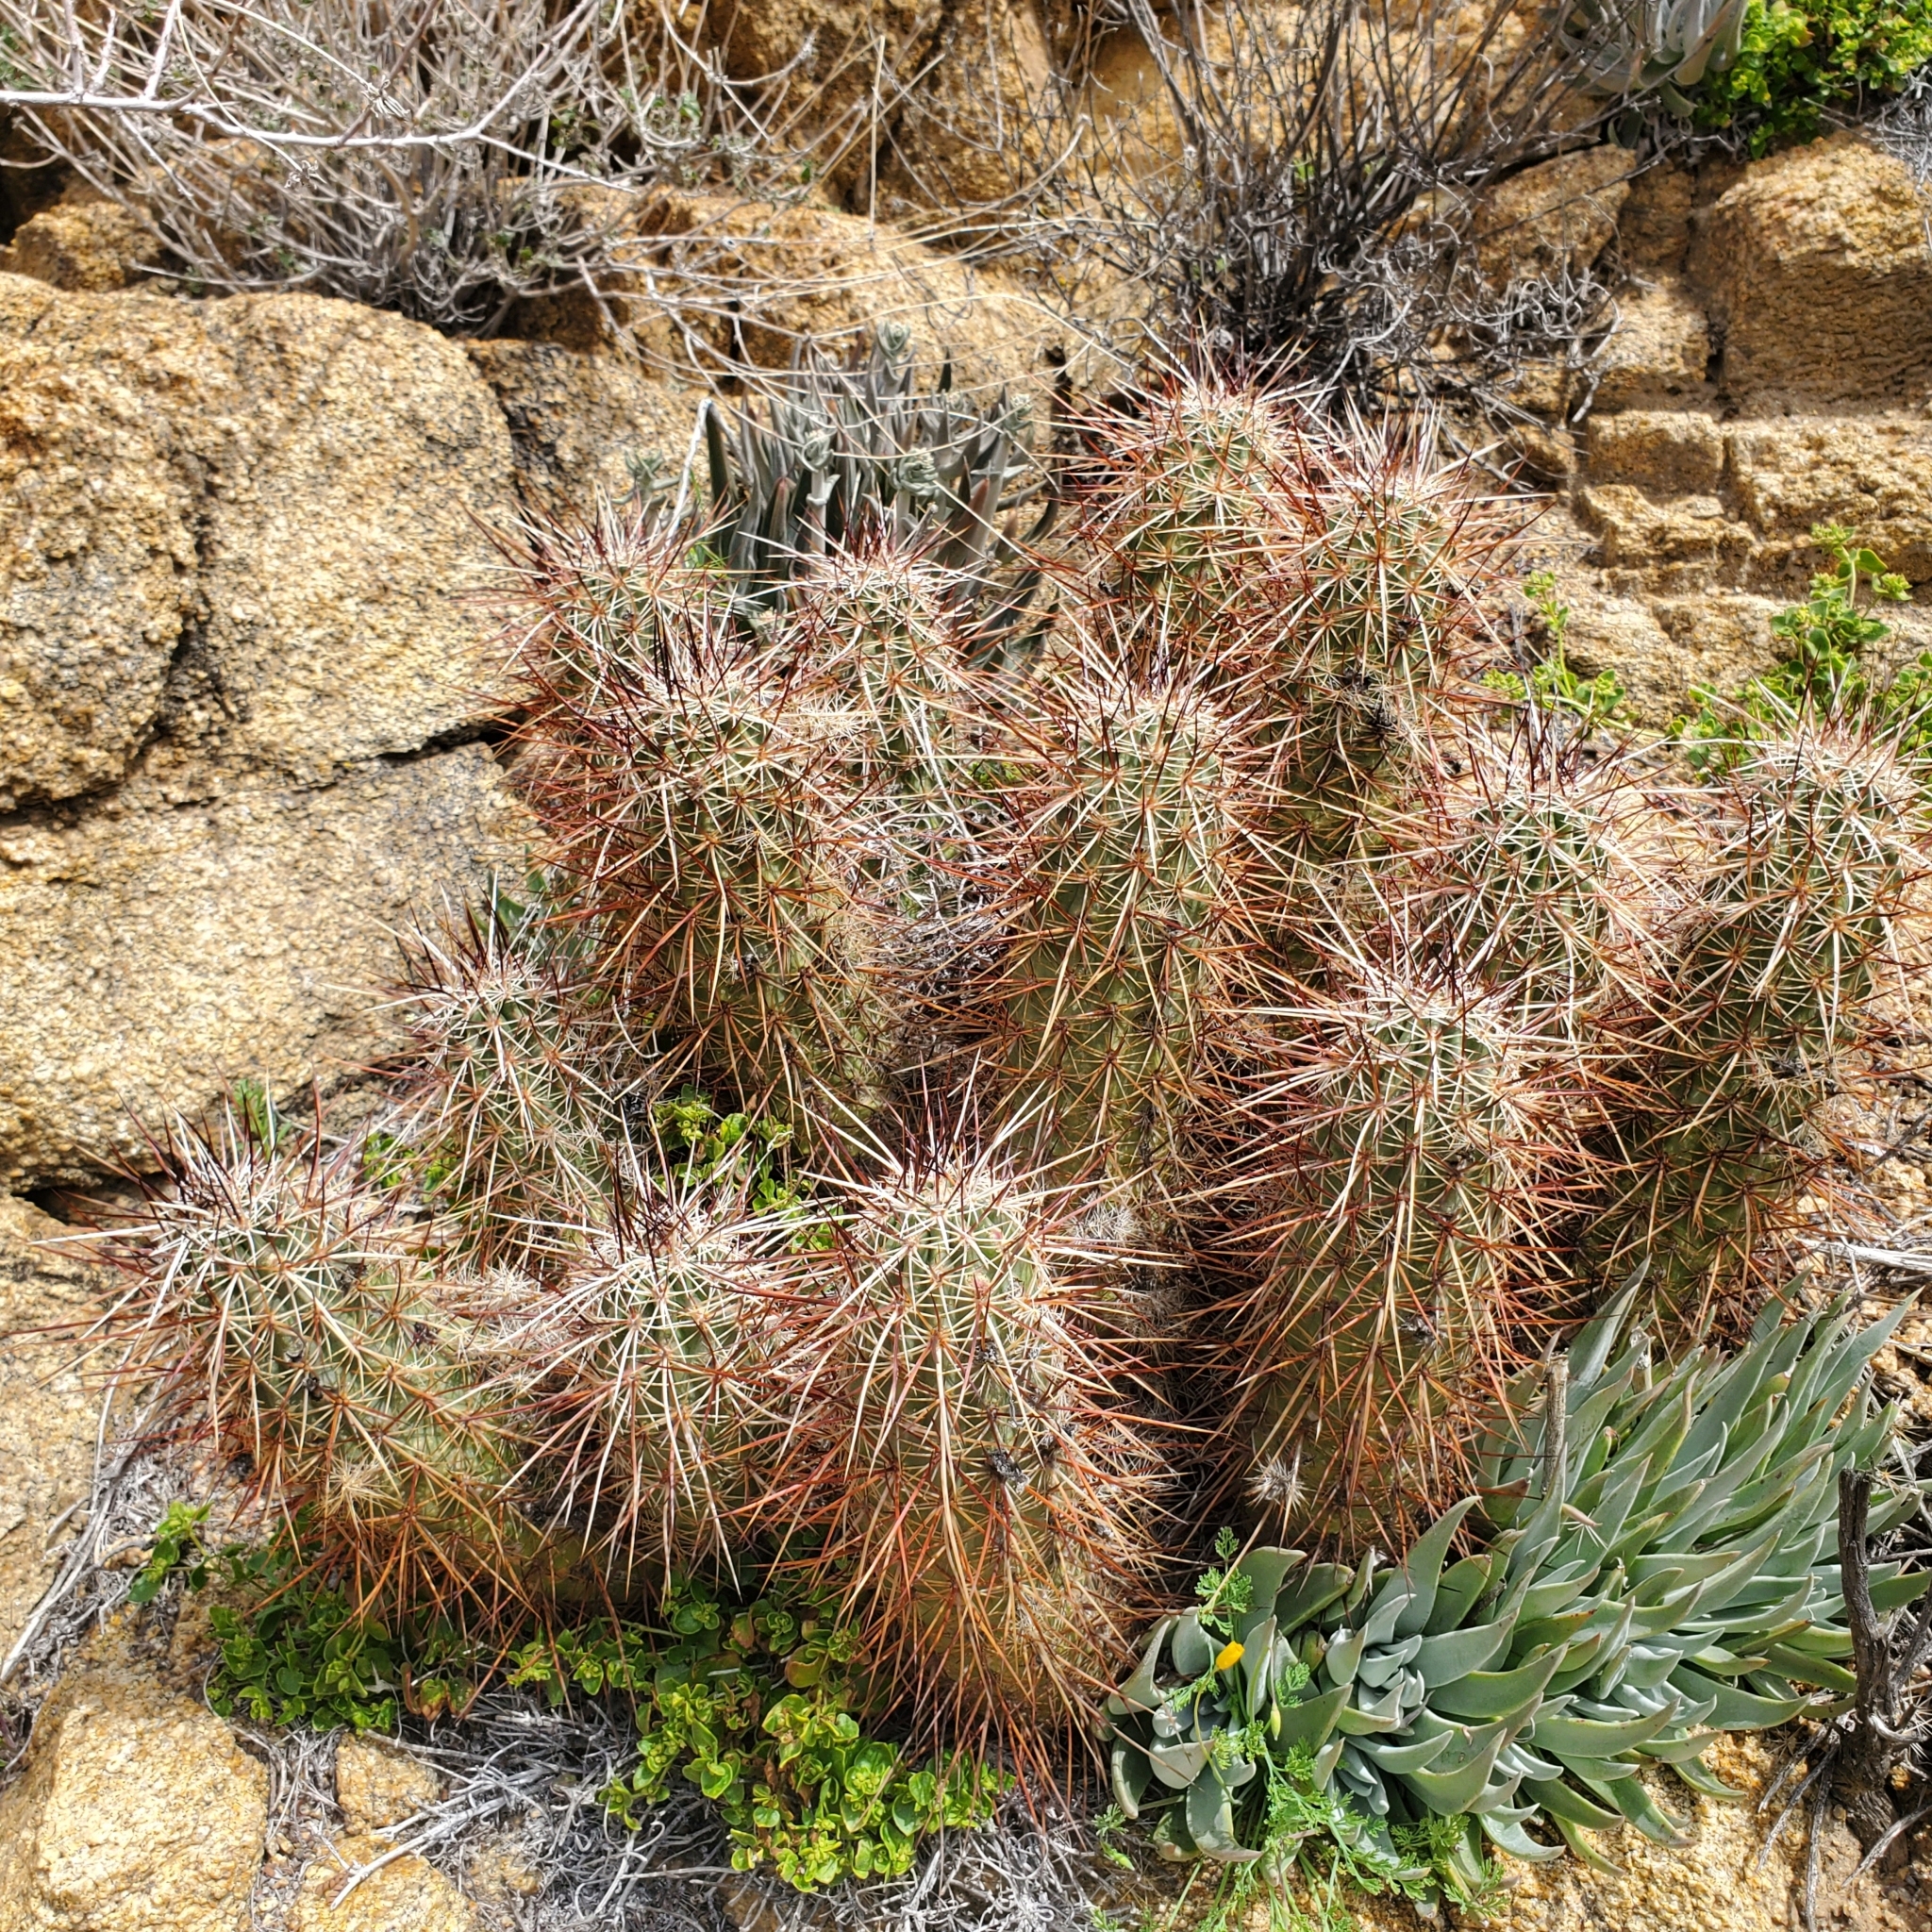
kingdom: Plantae
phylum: Tracheophyta
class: Magnoliopsida
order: Caryophyllales
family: Cactaceae
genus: Echinocereus
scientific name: Echinocereus engelmannii
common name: Engelmann's hedgehog cactus
